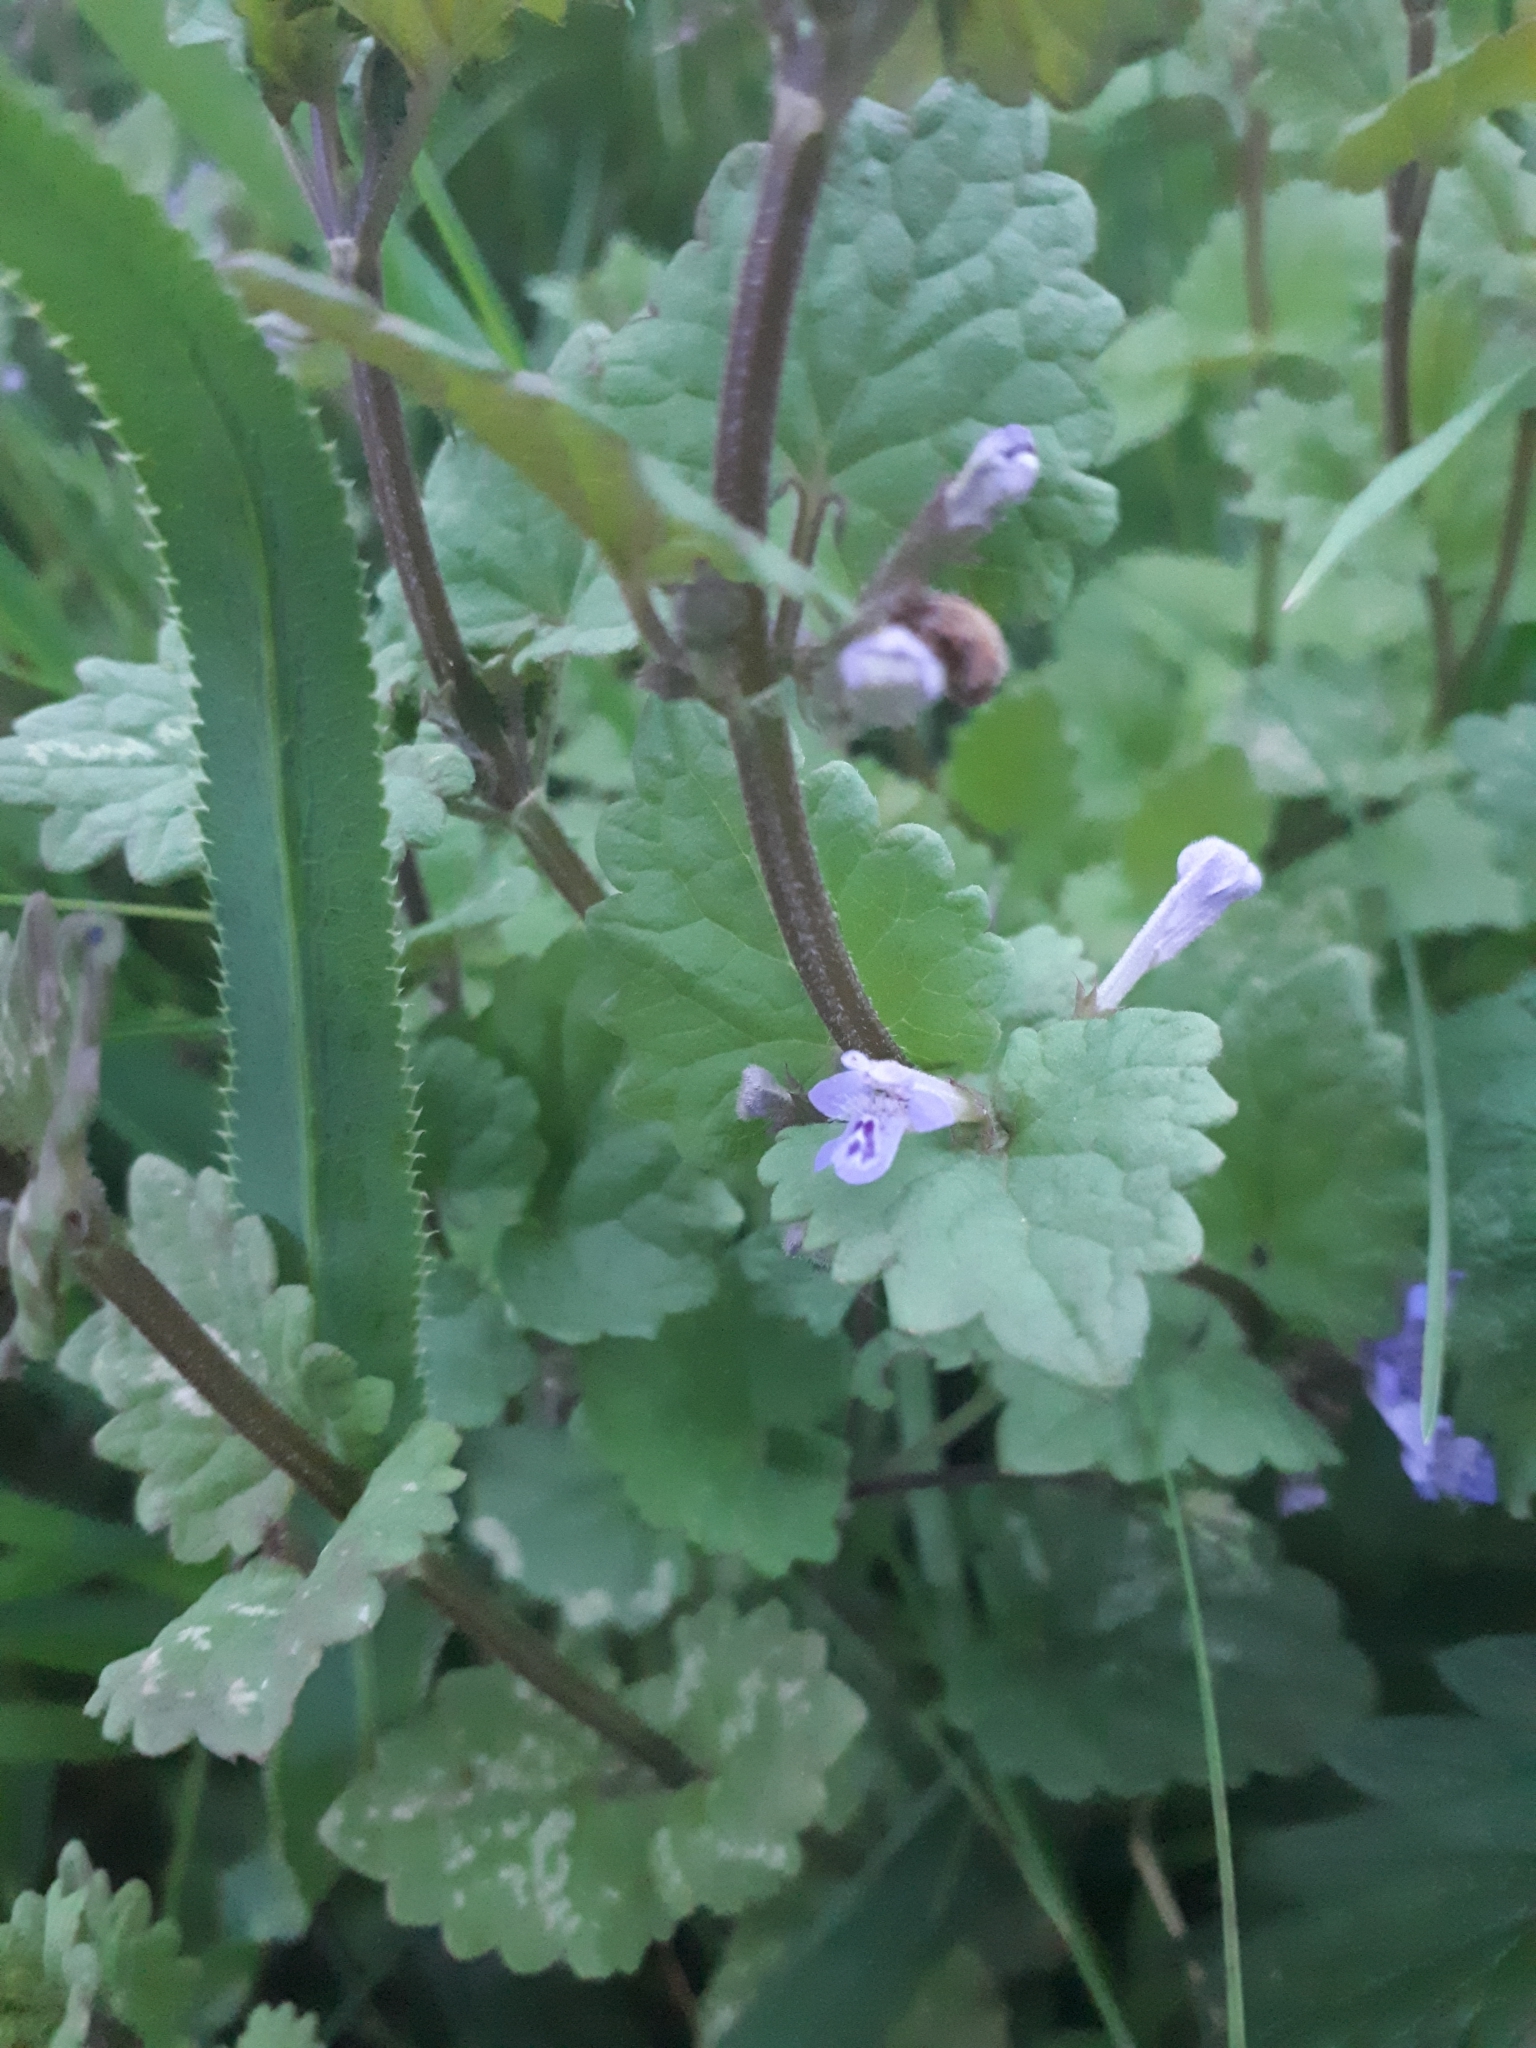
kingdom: Plantae
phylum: Tracheophyta
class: Magnoliopsida
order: Lamiales
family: Lamiaceae
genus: Glechoma
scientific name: Glechoma hederacea
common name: Ground ivy
